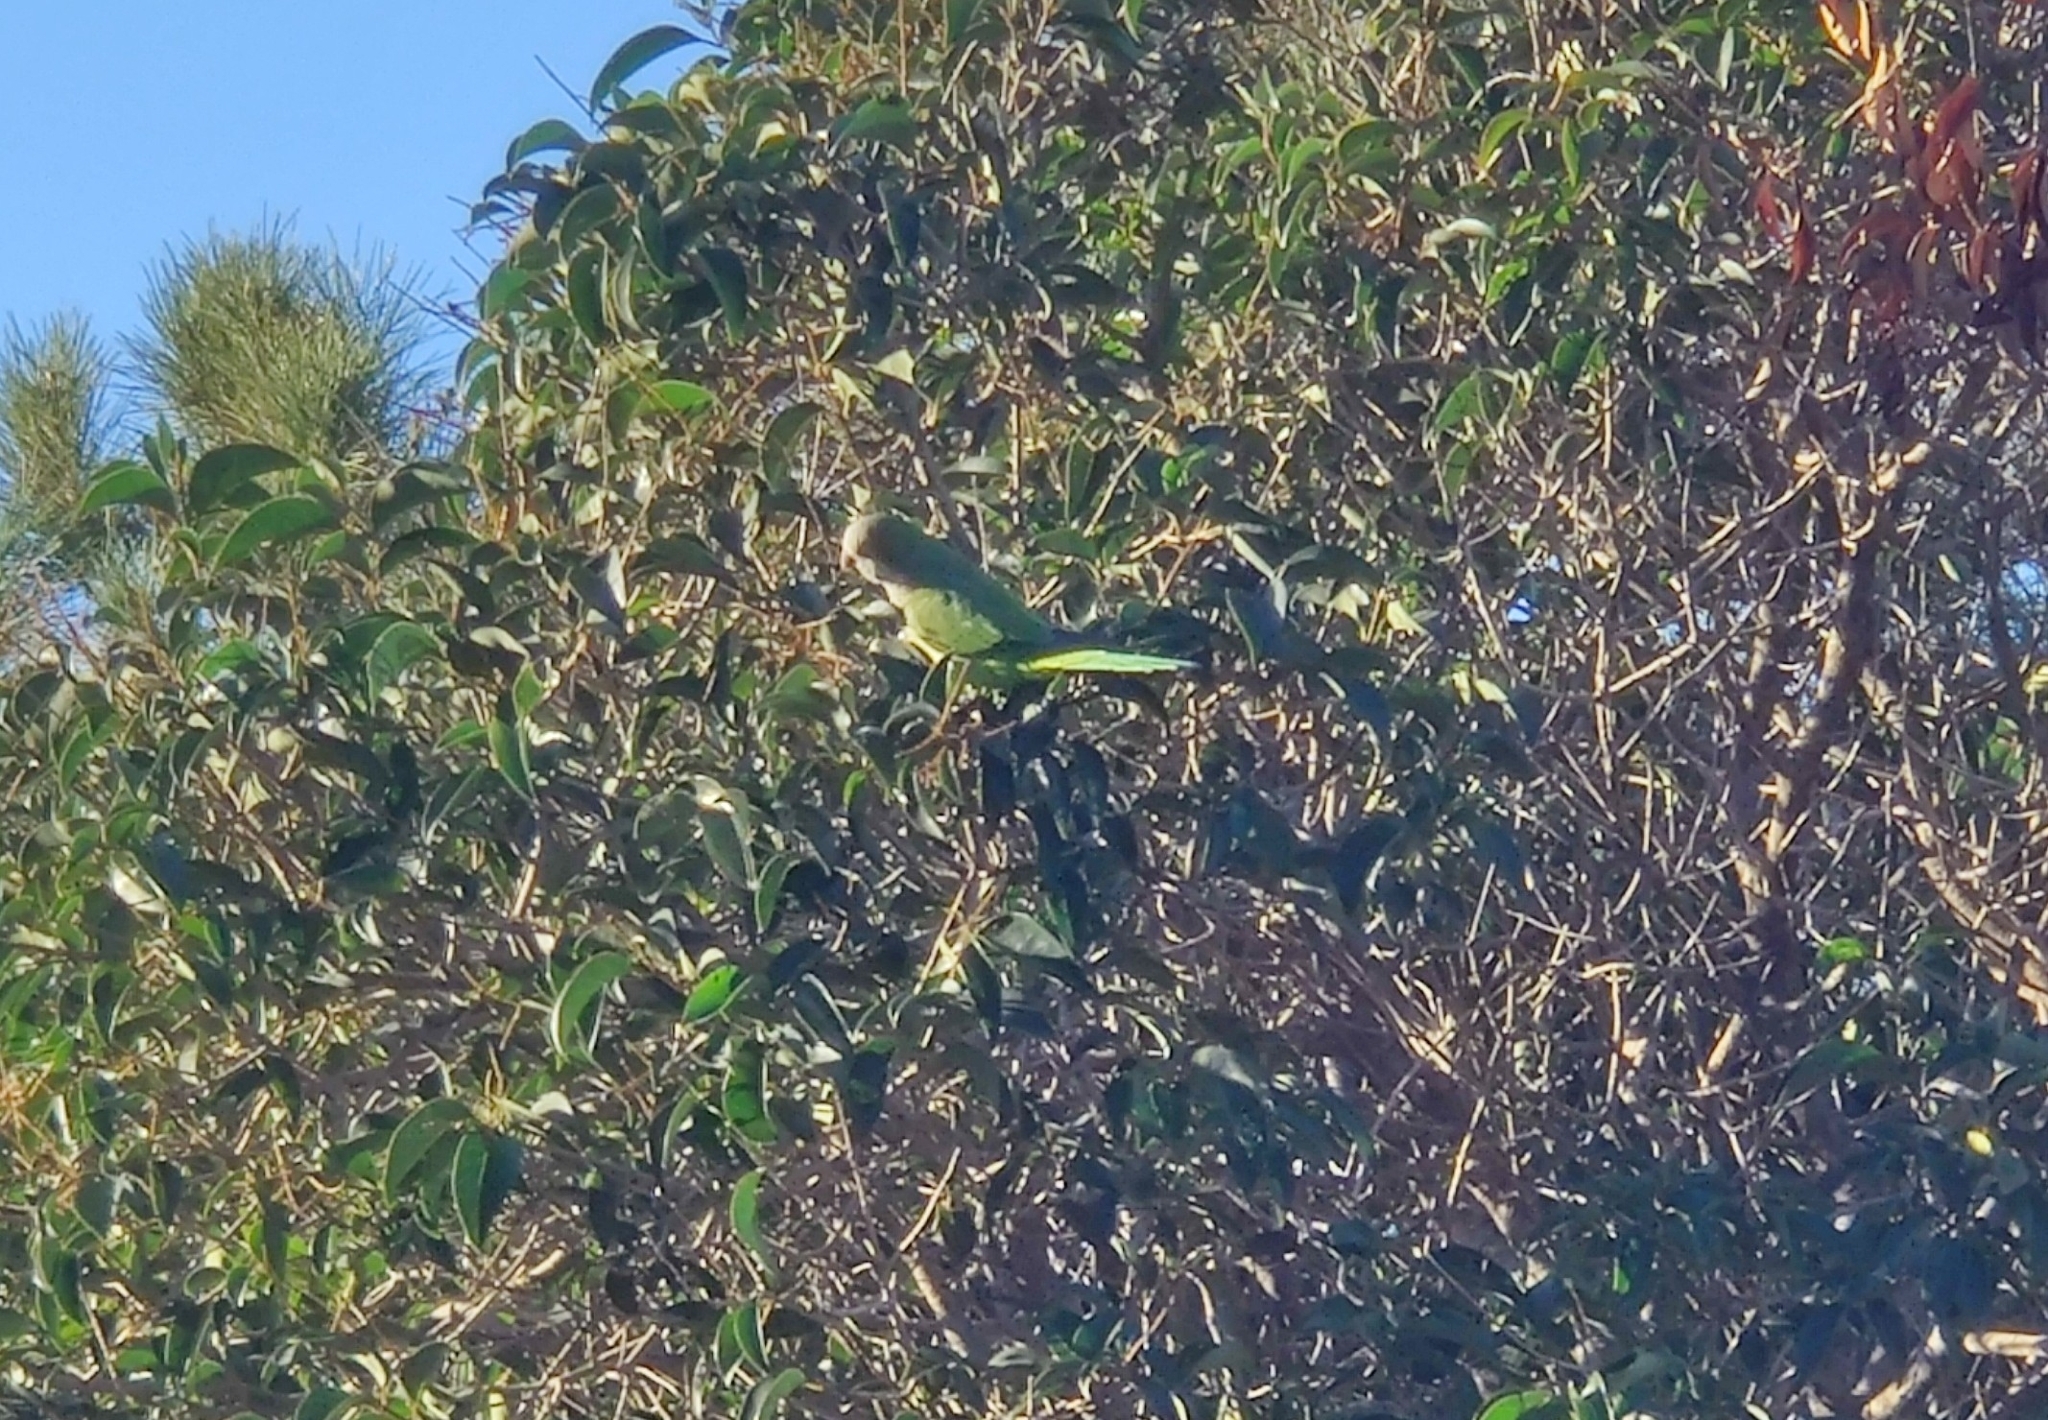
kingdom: Animalia
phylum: Chordata
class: Aves
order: Psittaciformes
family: Psittacidae
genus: Myiopsitta
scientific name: Myiopsitta monachus
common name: Monk parakeet
